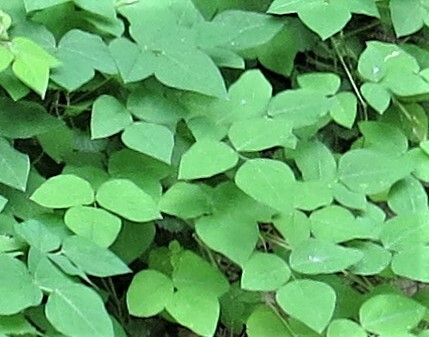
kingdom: Plantae
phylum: Tracheophyta
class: Magnoliopsida
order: Fabales
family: Fabaceae
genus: Amphicarpaea
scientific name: Amphicarpaea bracteata
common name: American hog peanut
